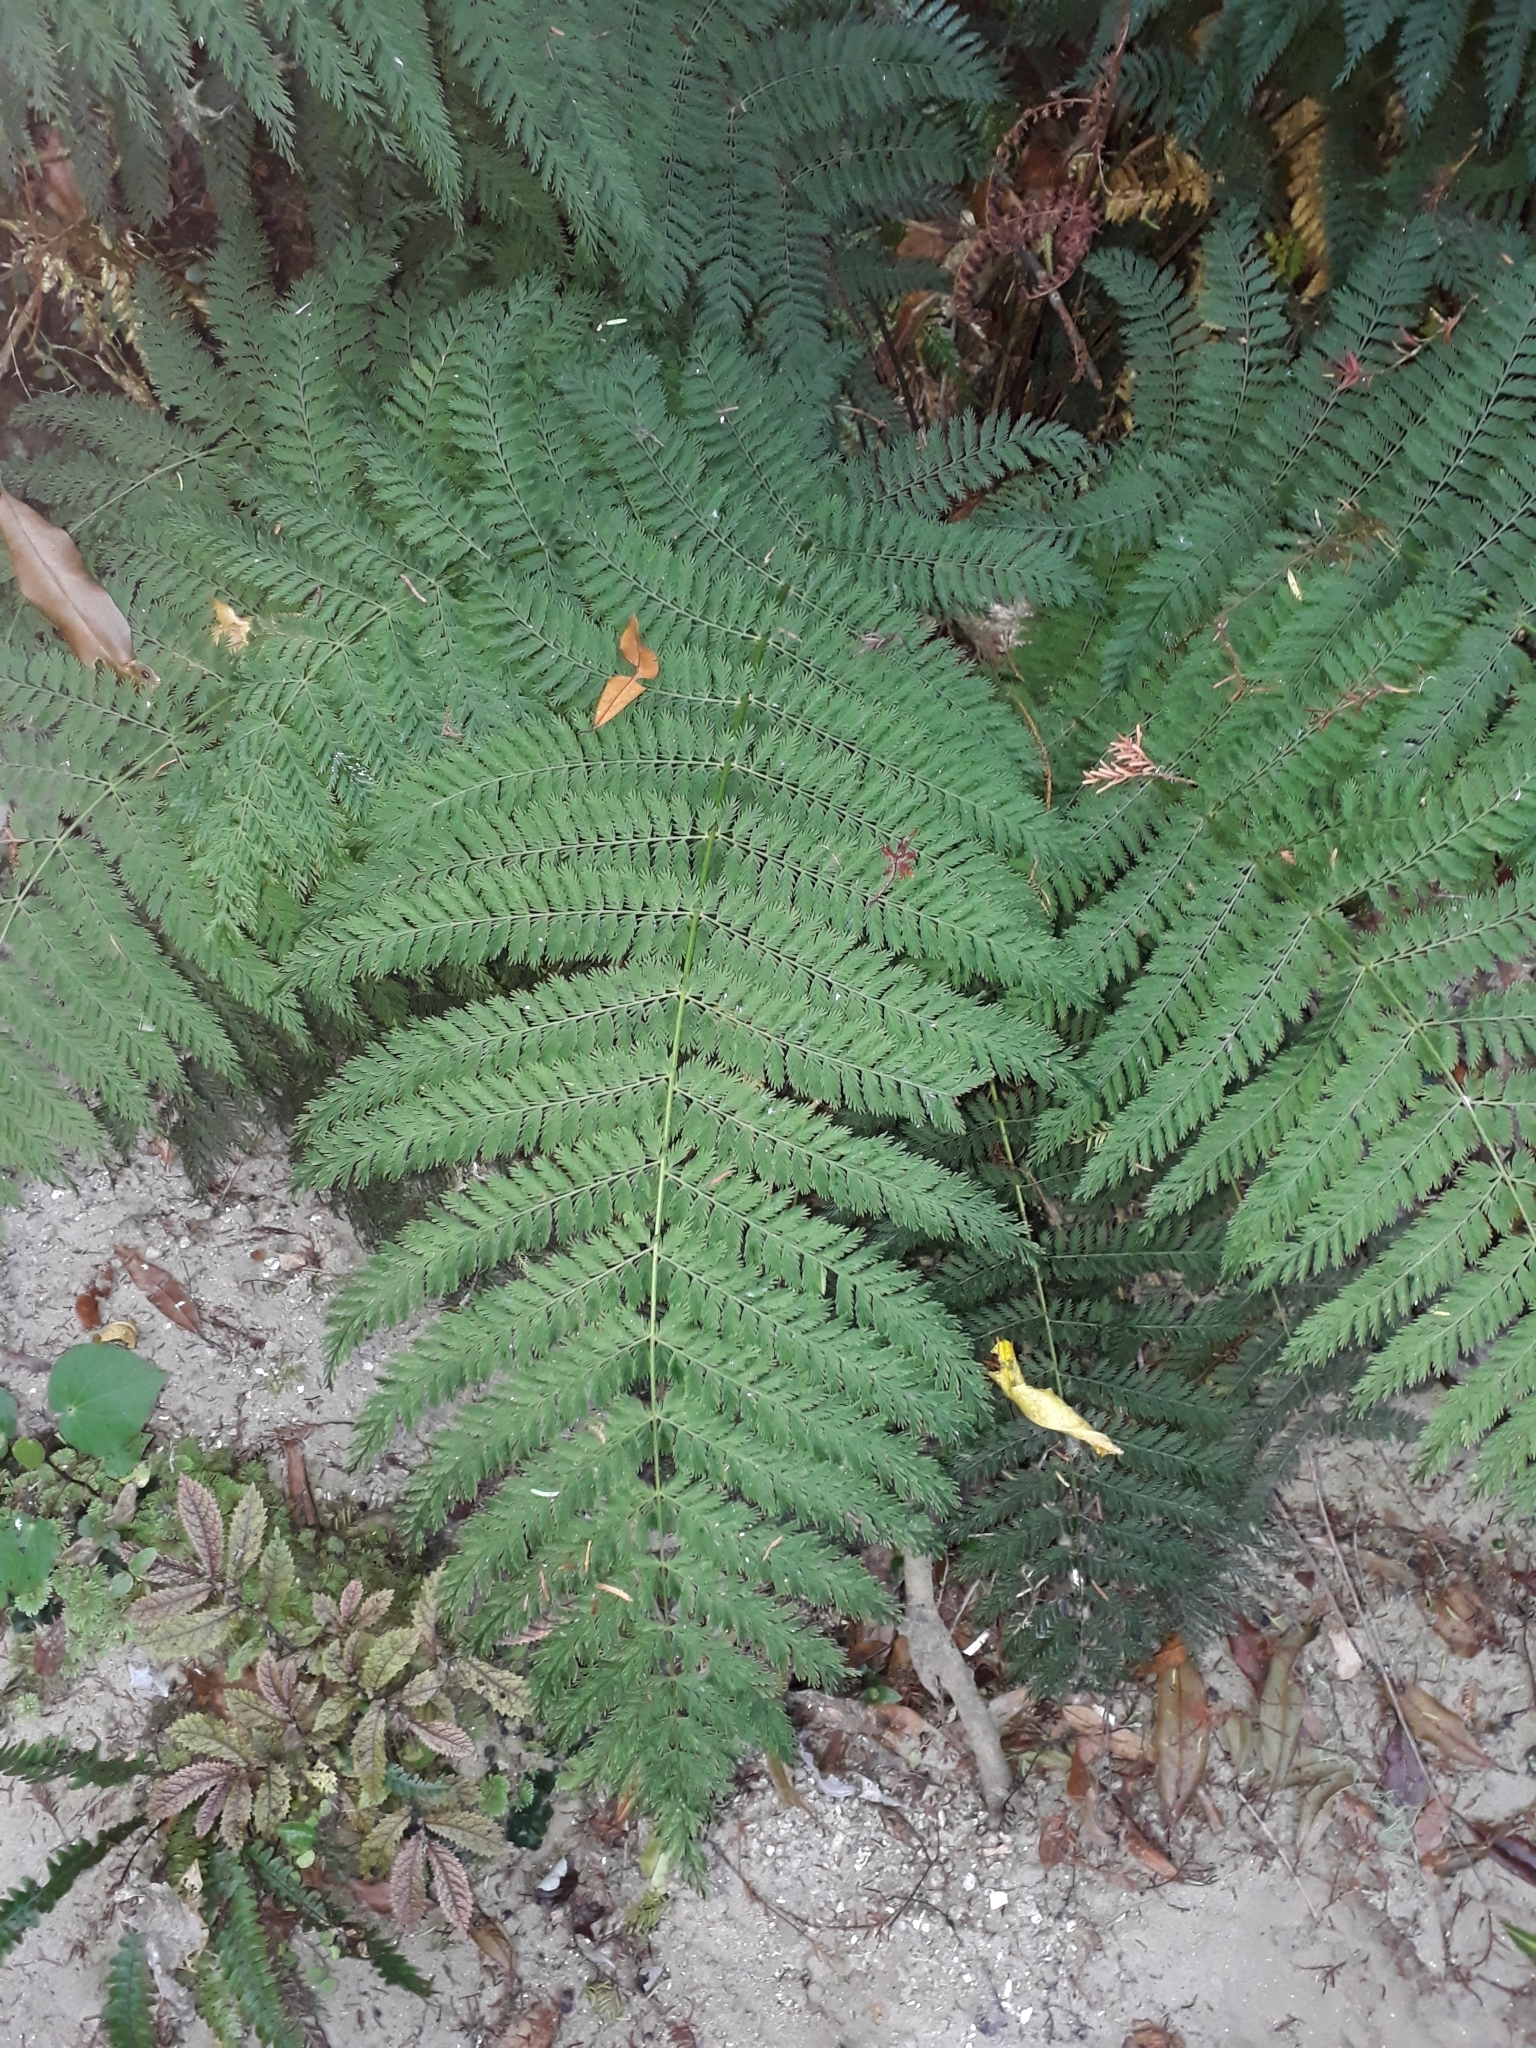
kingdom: Plantae
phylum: Tracheophyta
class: Polypodiopsida
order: Osmundales
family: Osmundaceae
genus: Leptopteris
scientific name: Leptopteris hymenophylloides
